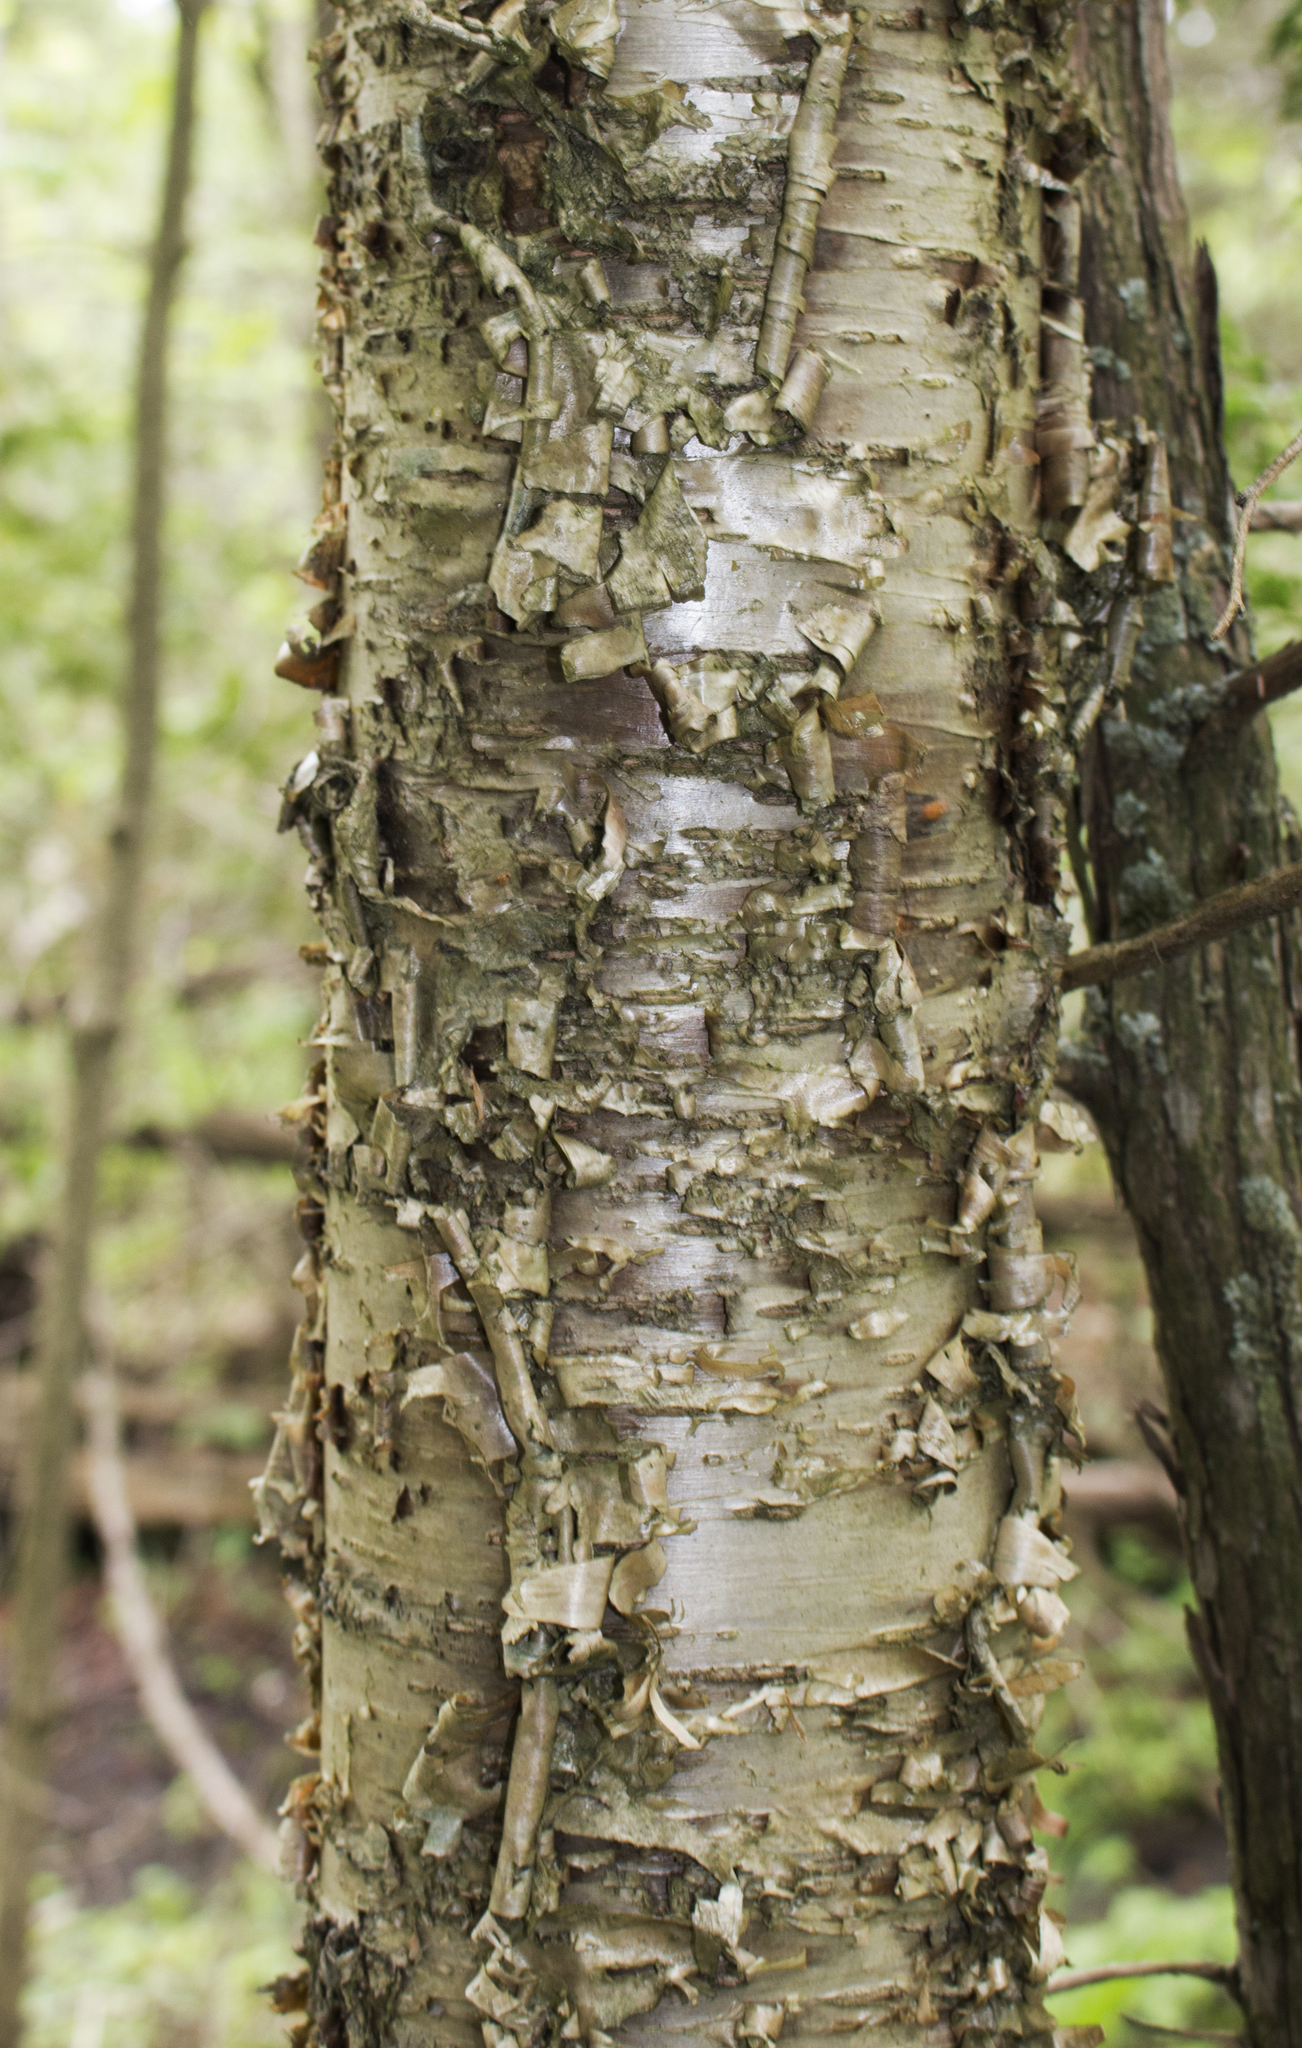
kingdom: Plantae
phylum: Tracheophyta
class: Magnoliopsida
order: Fagales
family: Betulaceae
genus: Betula
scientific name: Betula alleghaniensis
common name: Yellow birch
